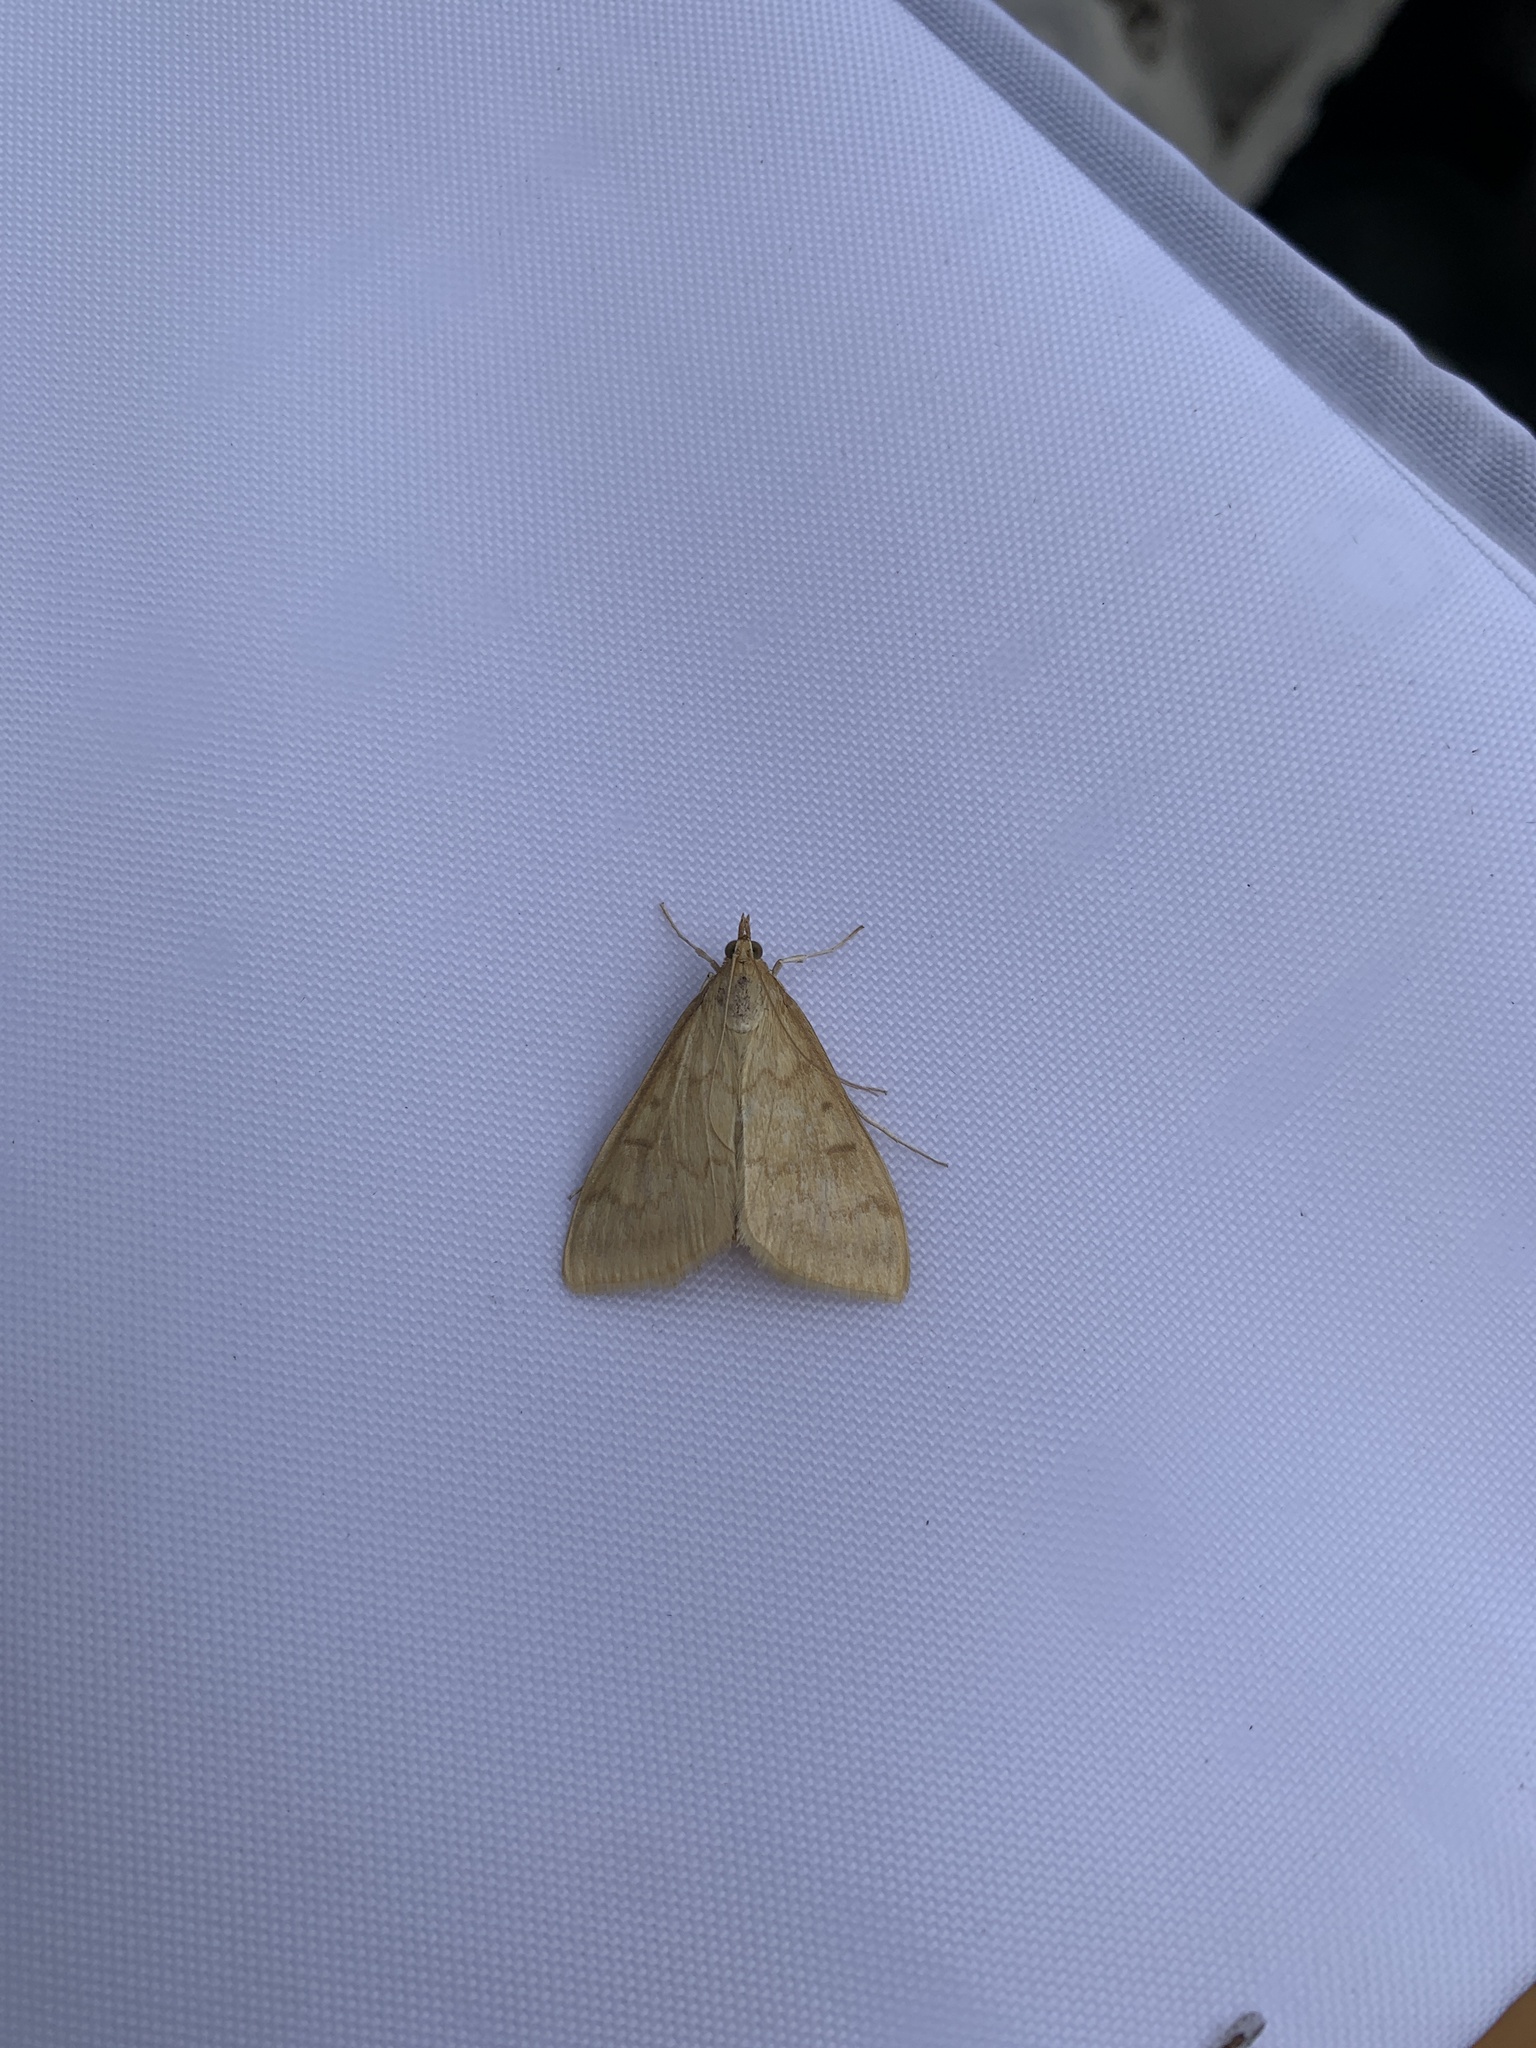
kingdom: Animalia
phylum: Arthropoda
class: Insecta
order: Lepidoptera
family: Crambidae
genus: Ostrinia
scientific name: Ostrinia penitalis
